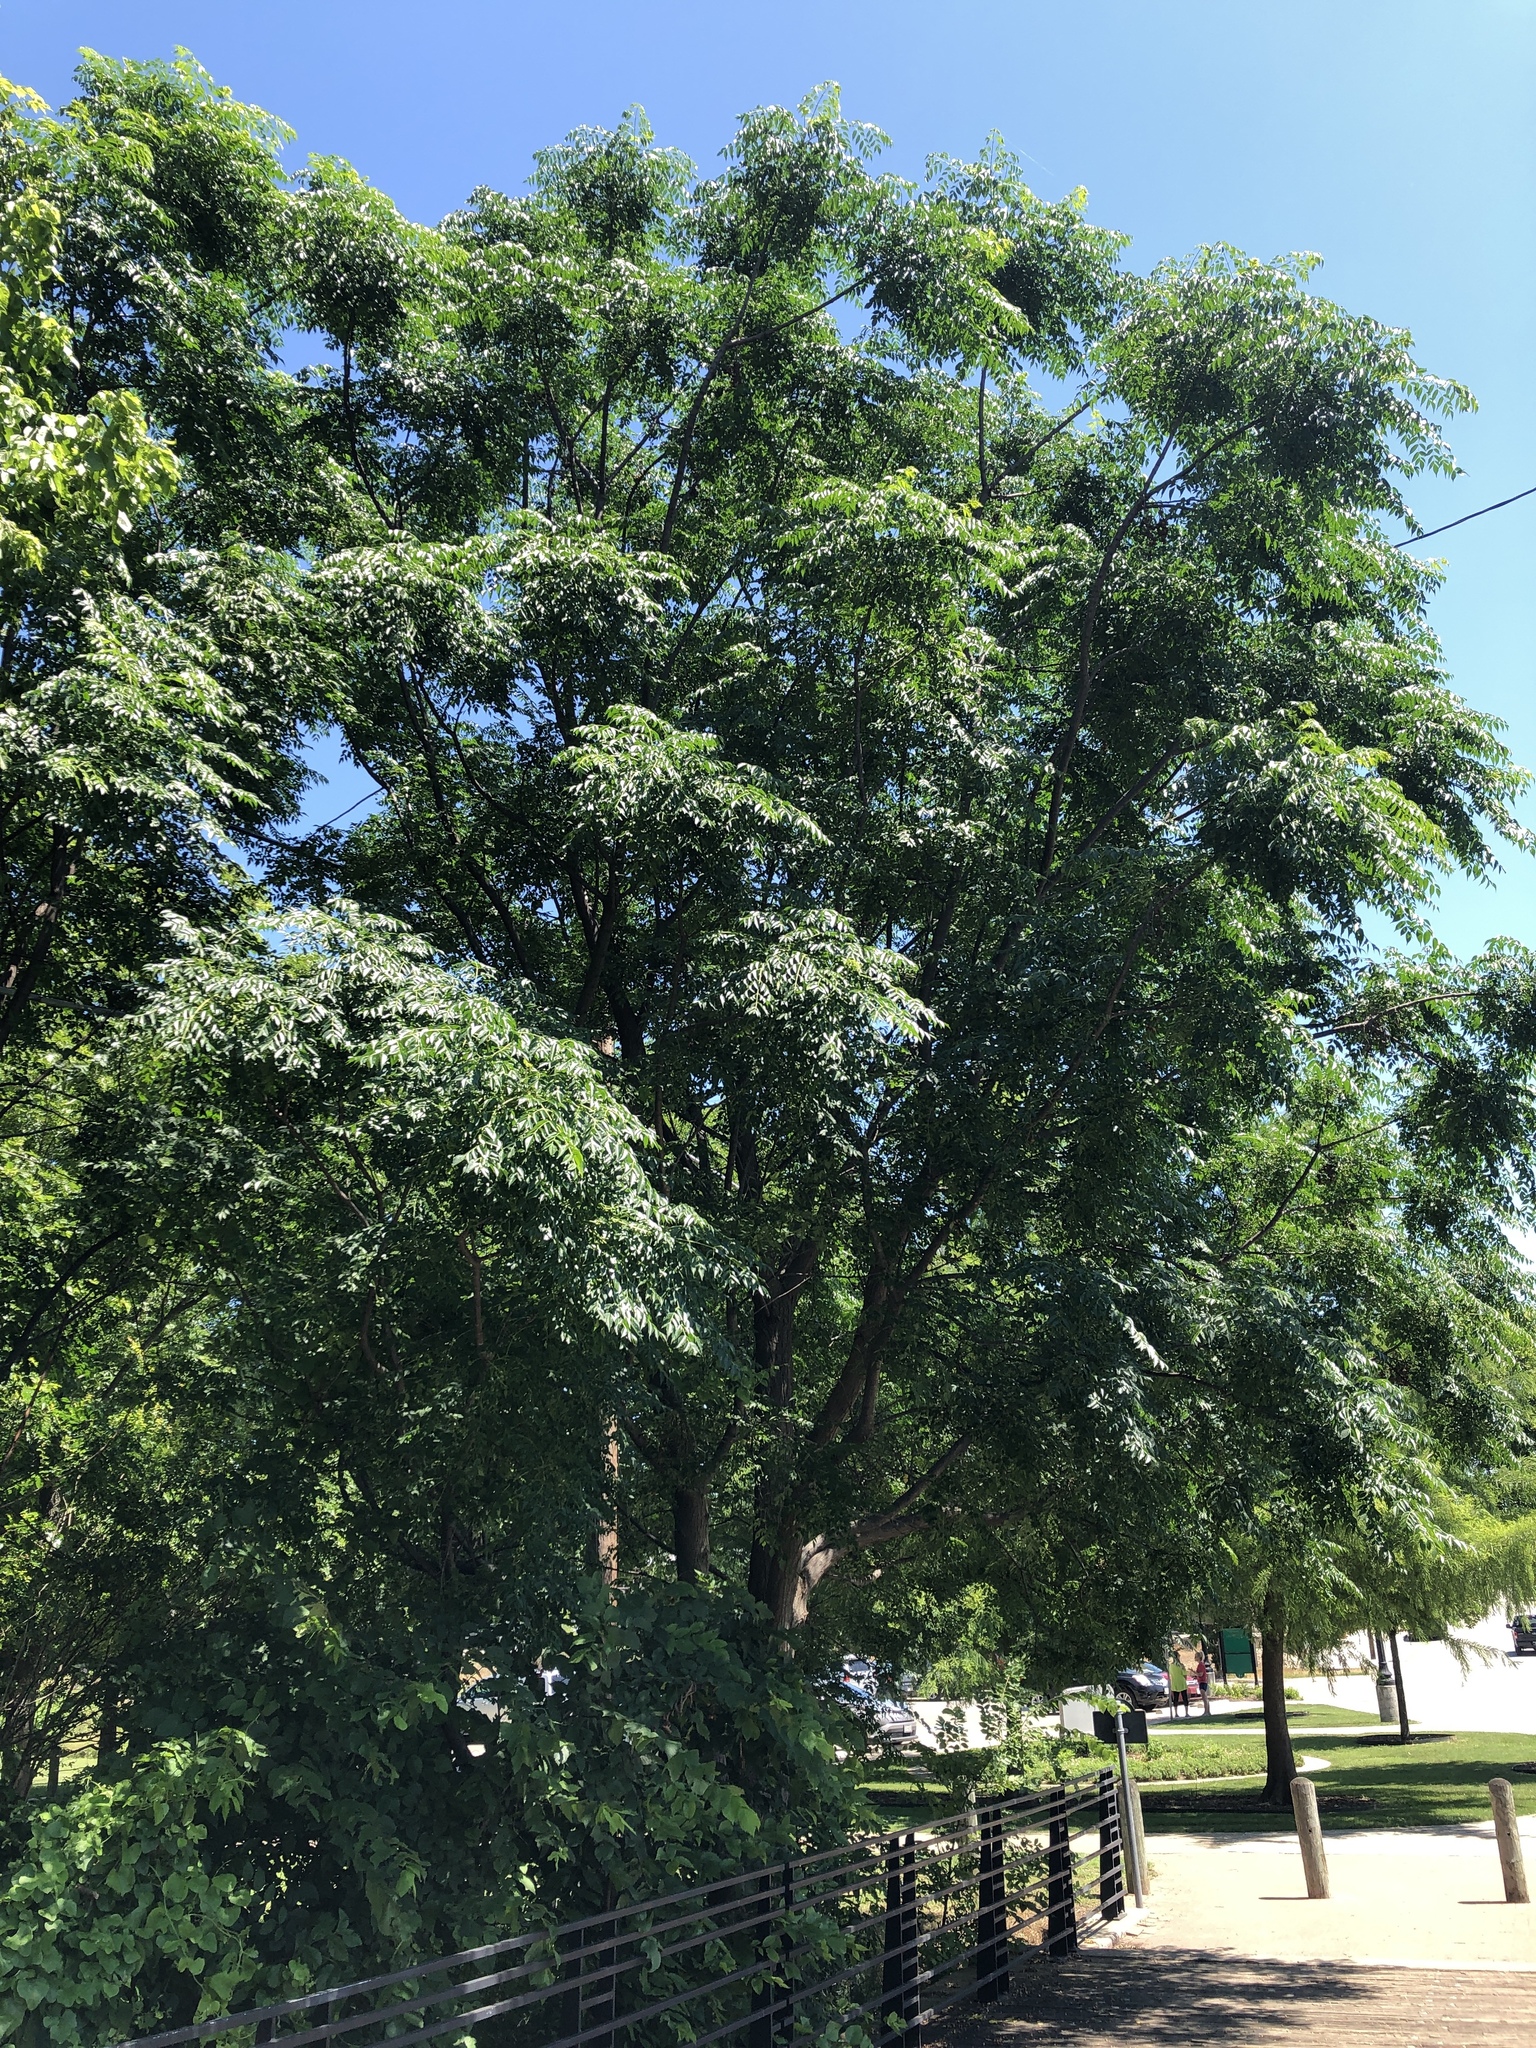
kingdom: Plantae
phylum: Tracheophyta
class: Magnoliopsida
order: Sapindales
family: Meliaceae
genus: Melia
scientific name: Melia azedarach
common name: Chinaberrytree
